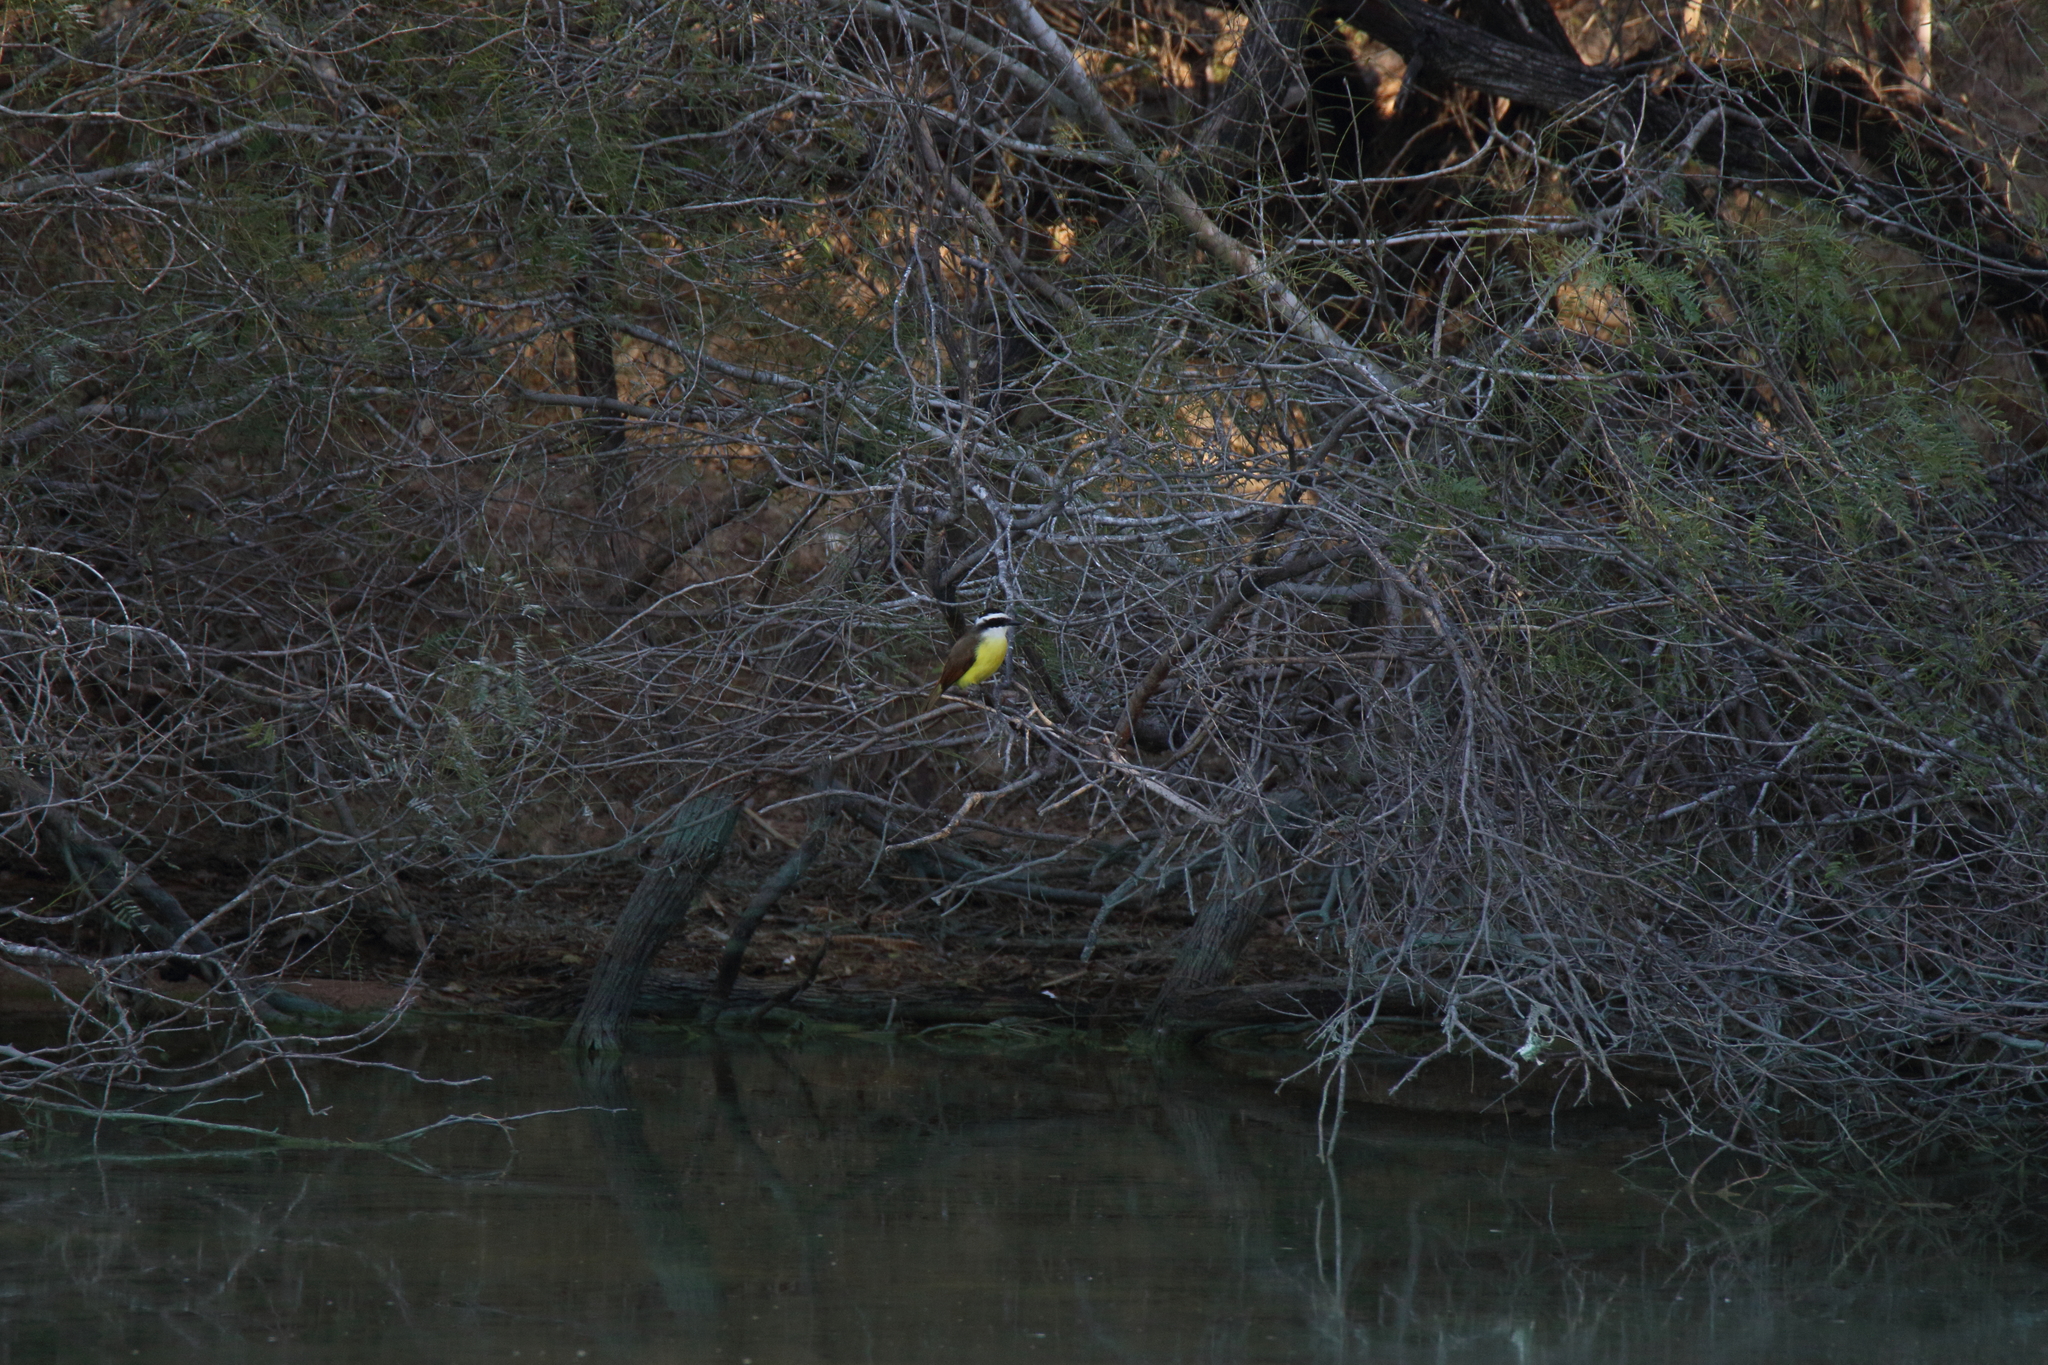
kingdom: Animalia
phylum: Chordata
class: Aves
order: Passeriformes
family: Tyrannidae
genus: Pitangus
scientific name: Pitangus sulphuratus
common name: Great kiskadee
